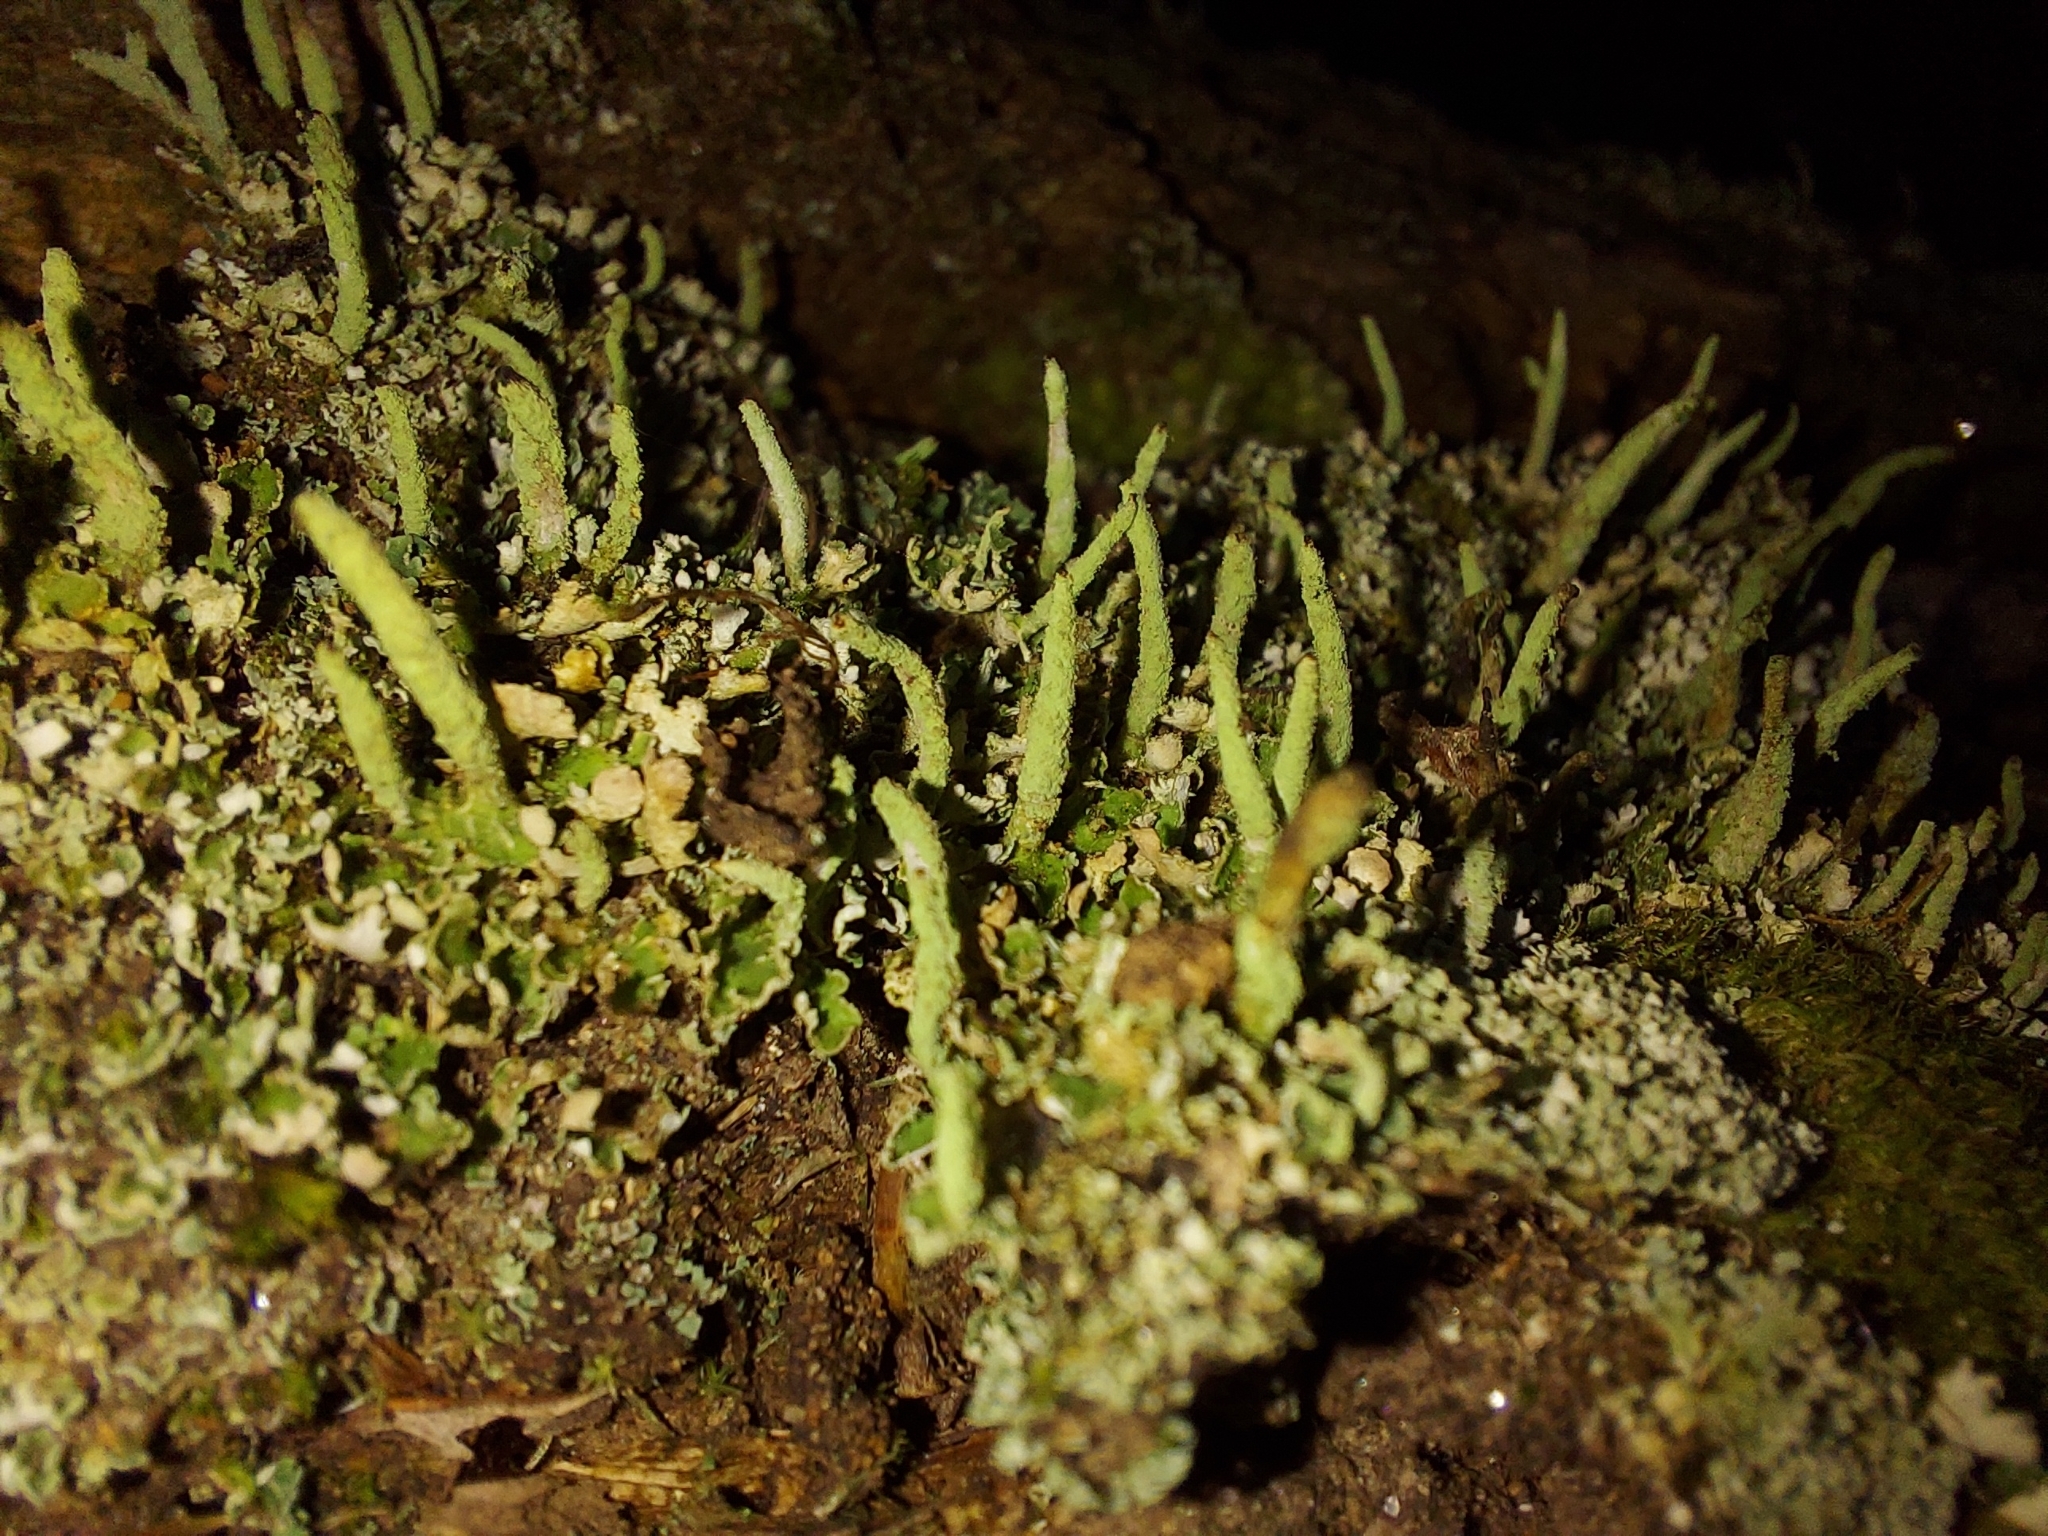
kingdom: Fungi
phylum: Ascomycota
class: Lecanoromycetes
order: Lecanorales
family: Cladoniaceae
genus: Cladonia
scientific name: Cladonia coniocraea
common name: Common powderhorn
